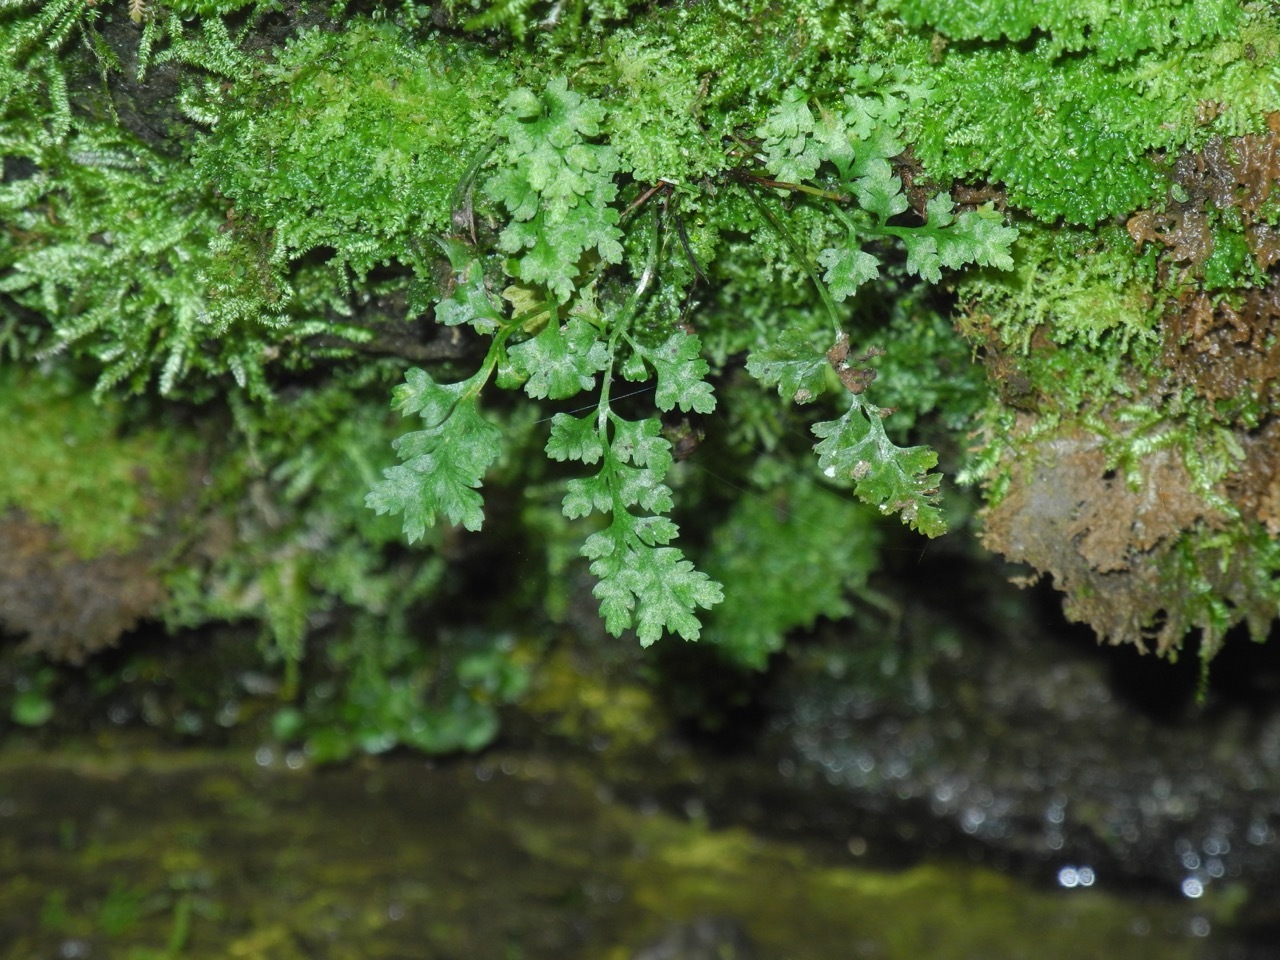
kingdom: Plantae
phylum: Tracheophyta
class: Polypodiopsida
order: Hymenophyllales
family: Hymenophyllaceae
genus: Vandenboschia
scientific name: Vandenboschia boschiana
